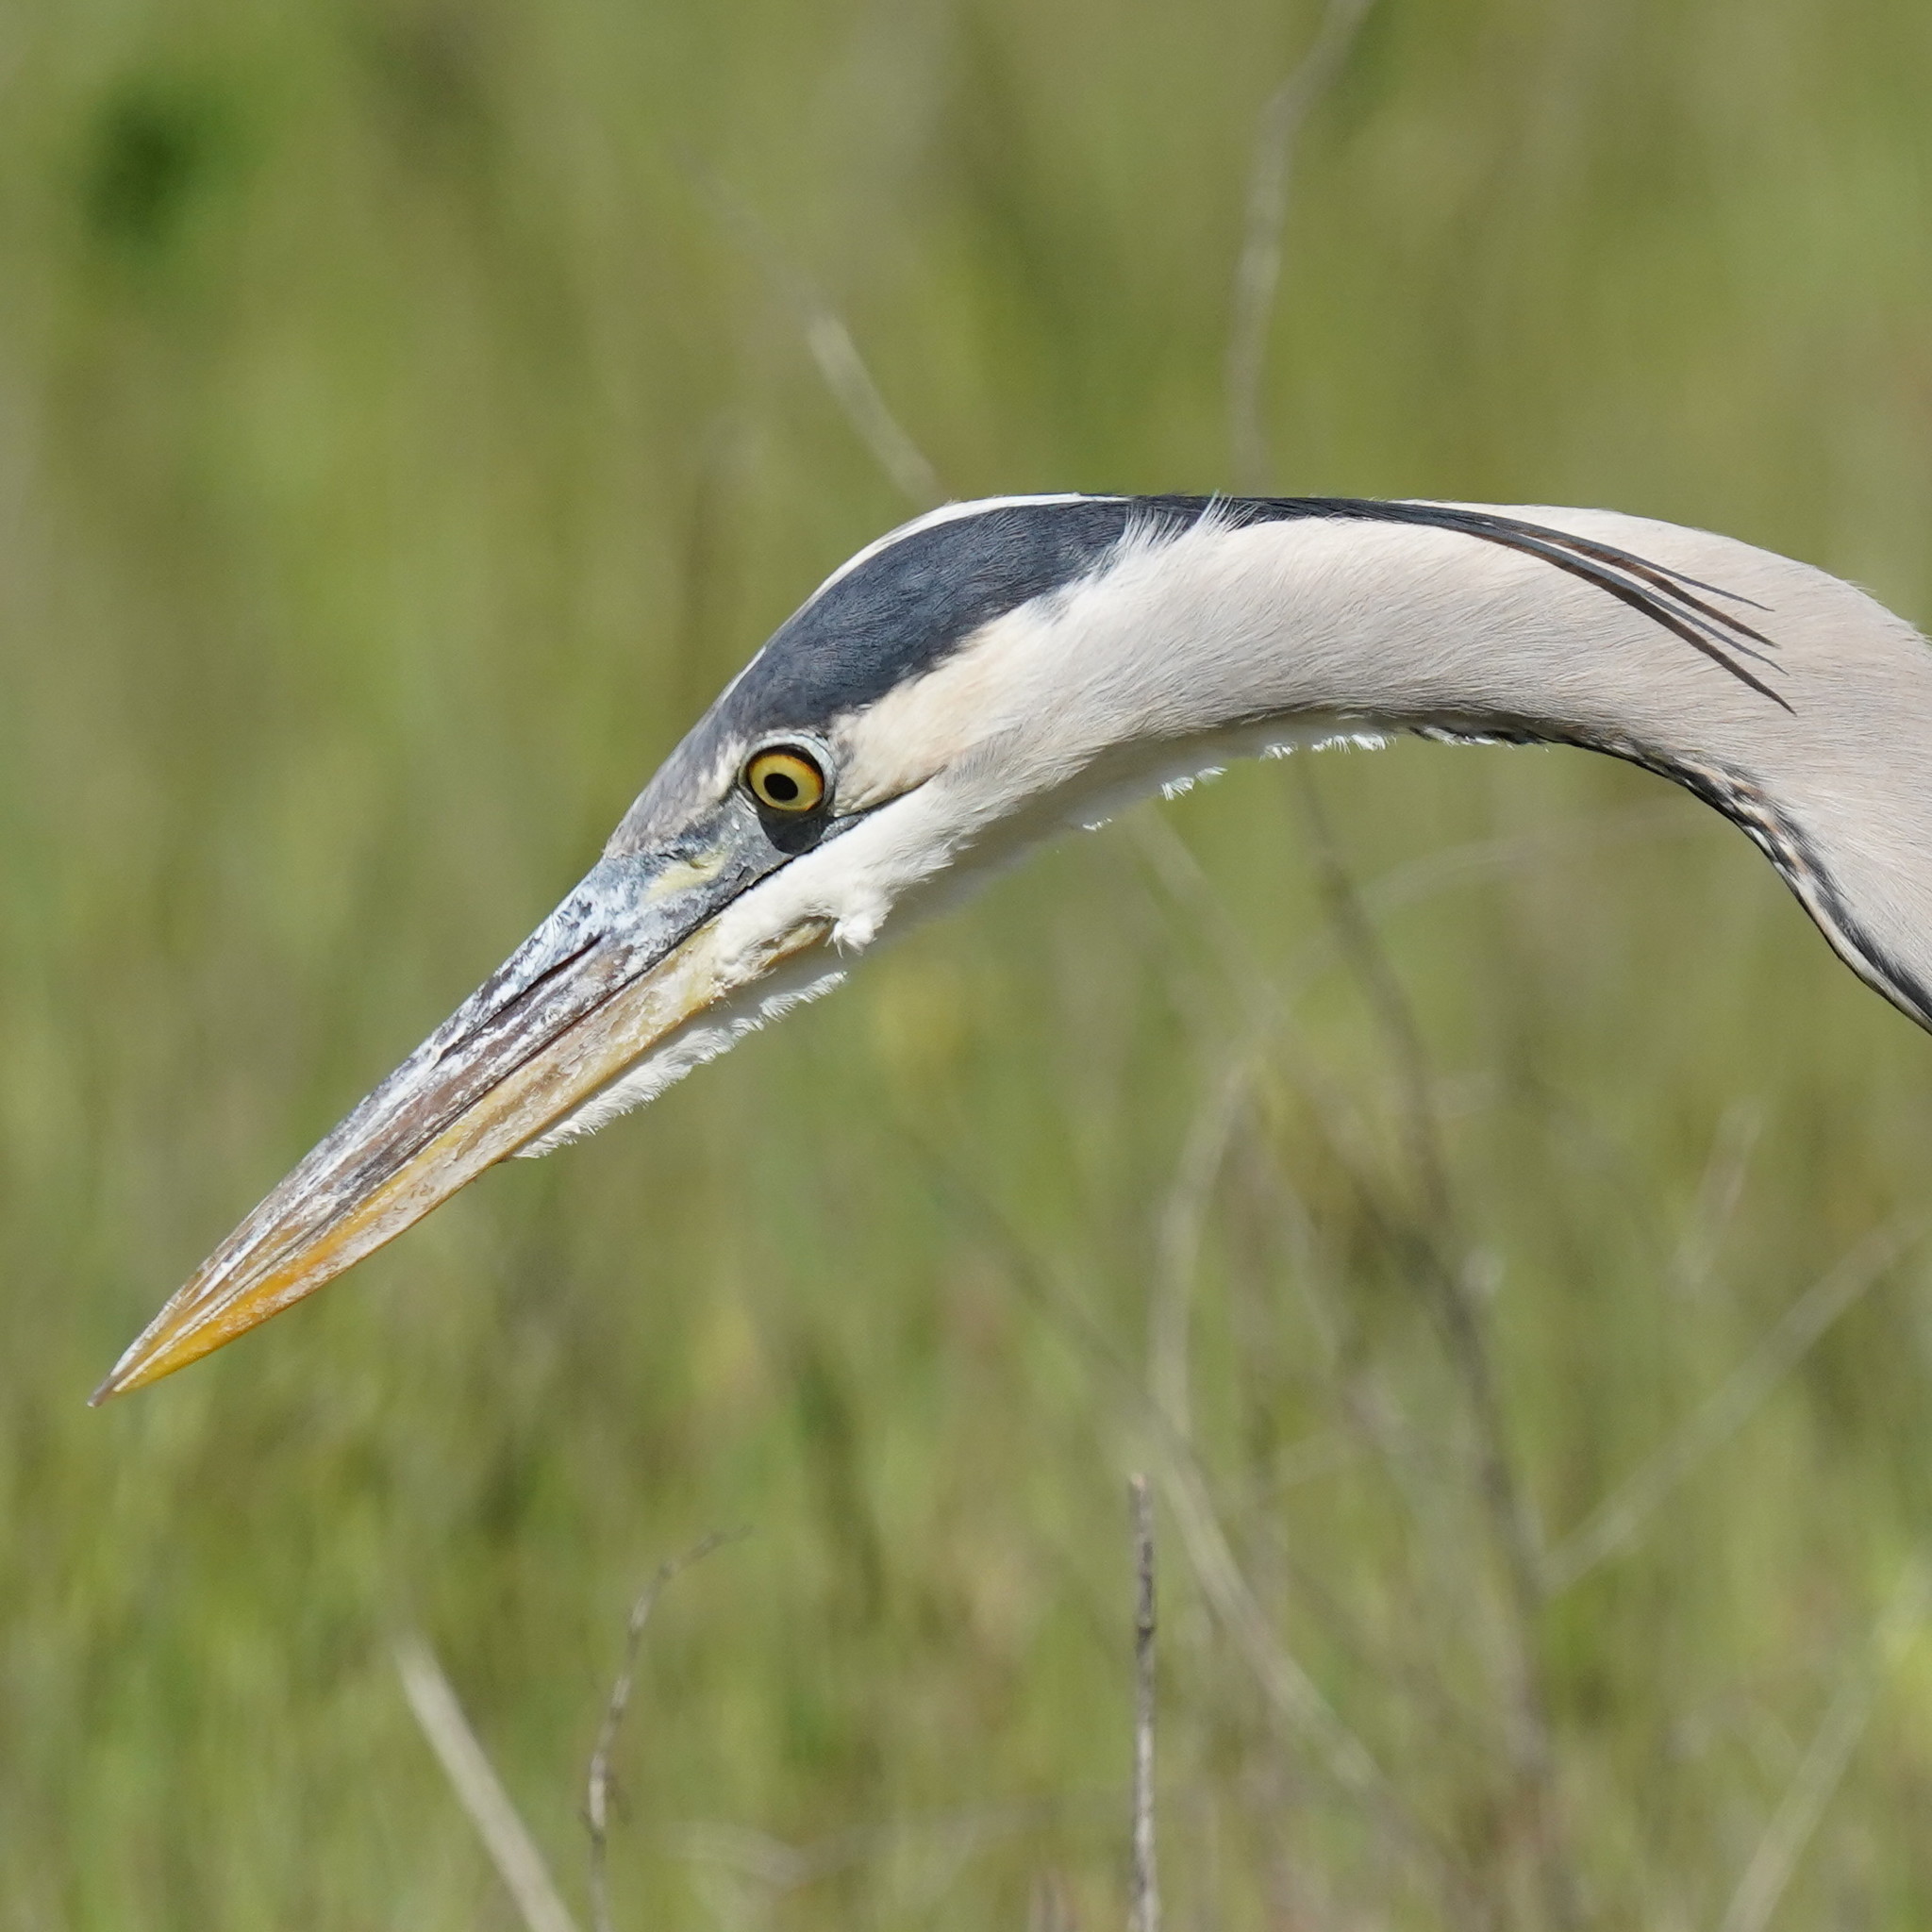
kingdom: Animalia
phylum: Chordata
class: Aves
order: Pelecaniformes
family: Ardeidae
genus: Ardea
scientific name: Ardea herodias
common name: Great blue heron
